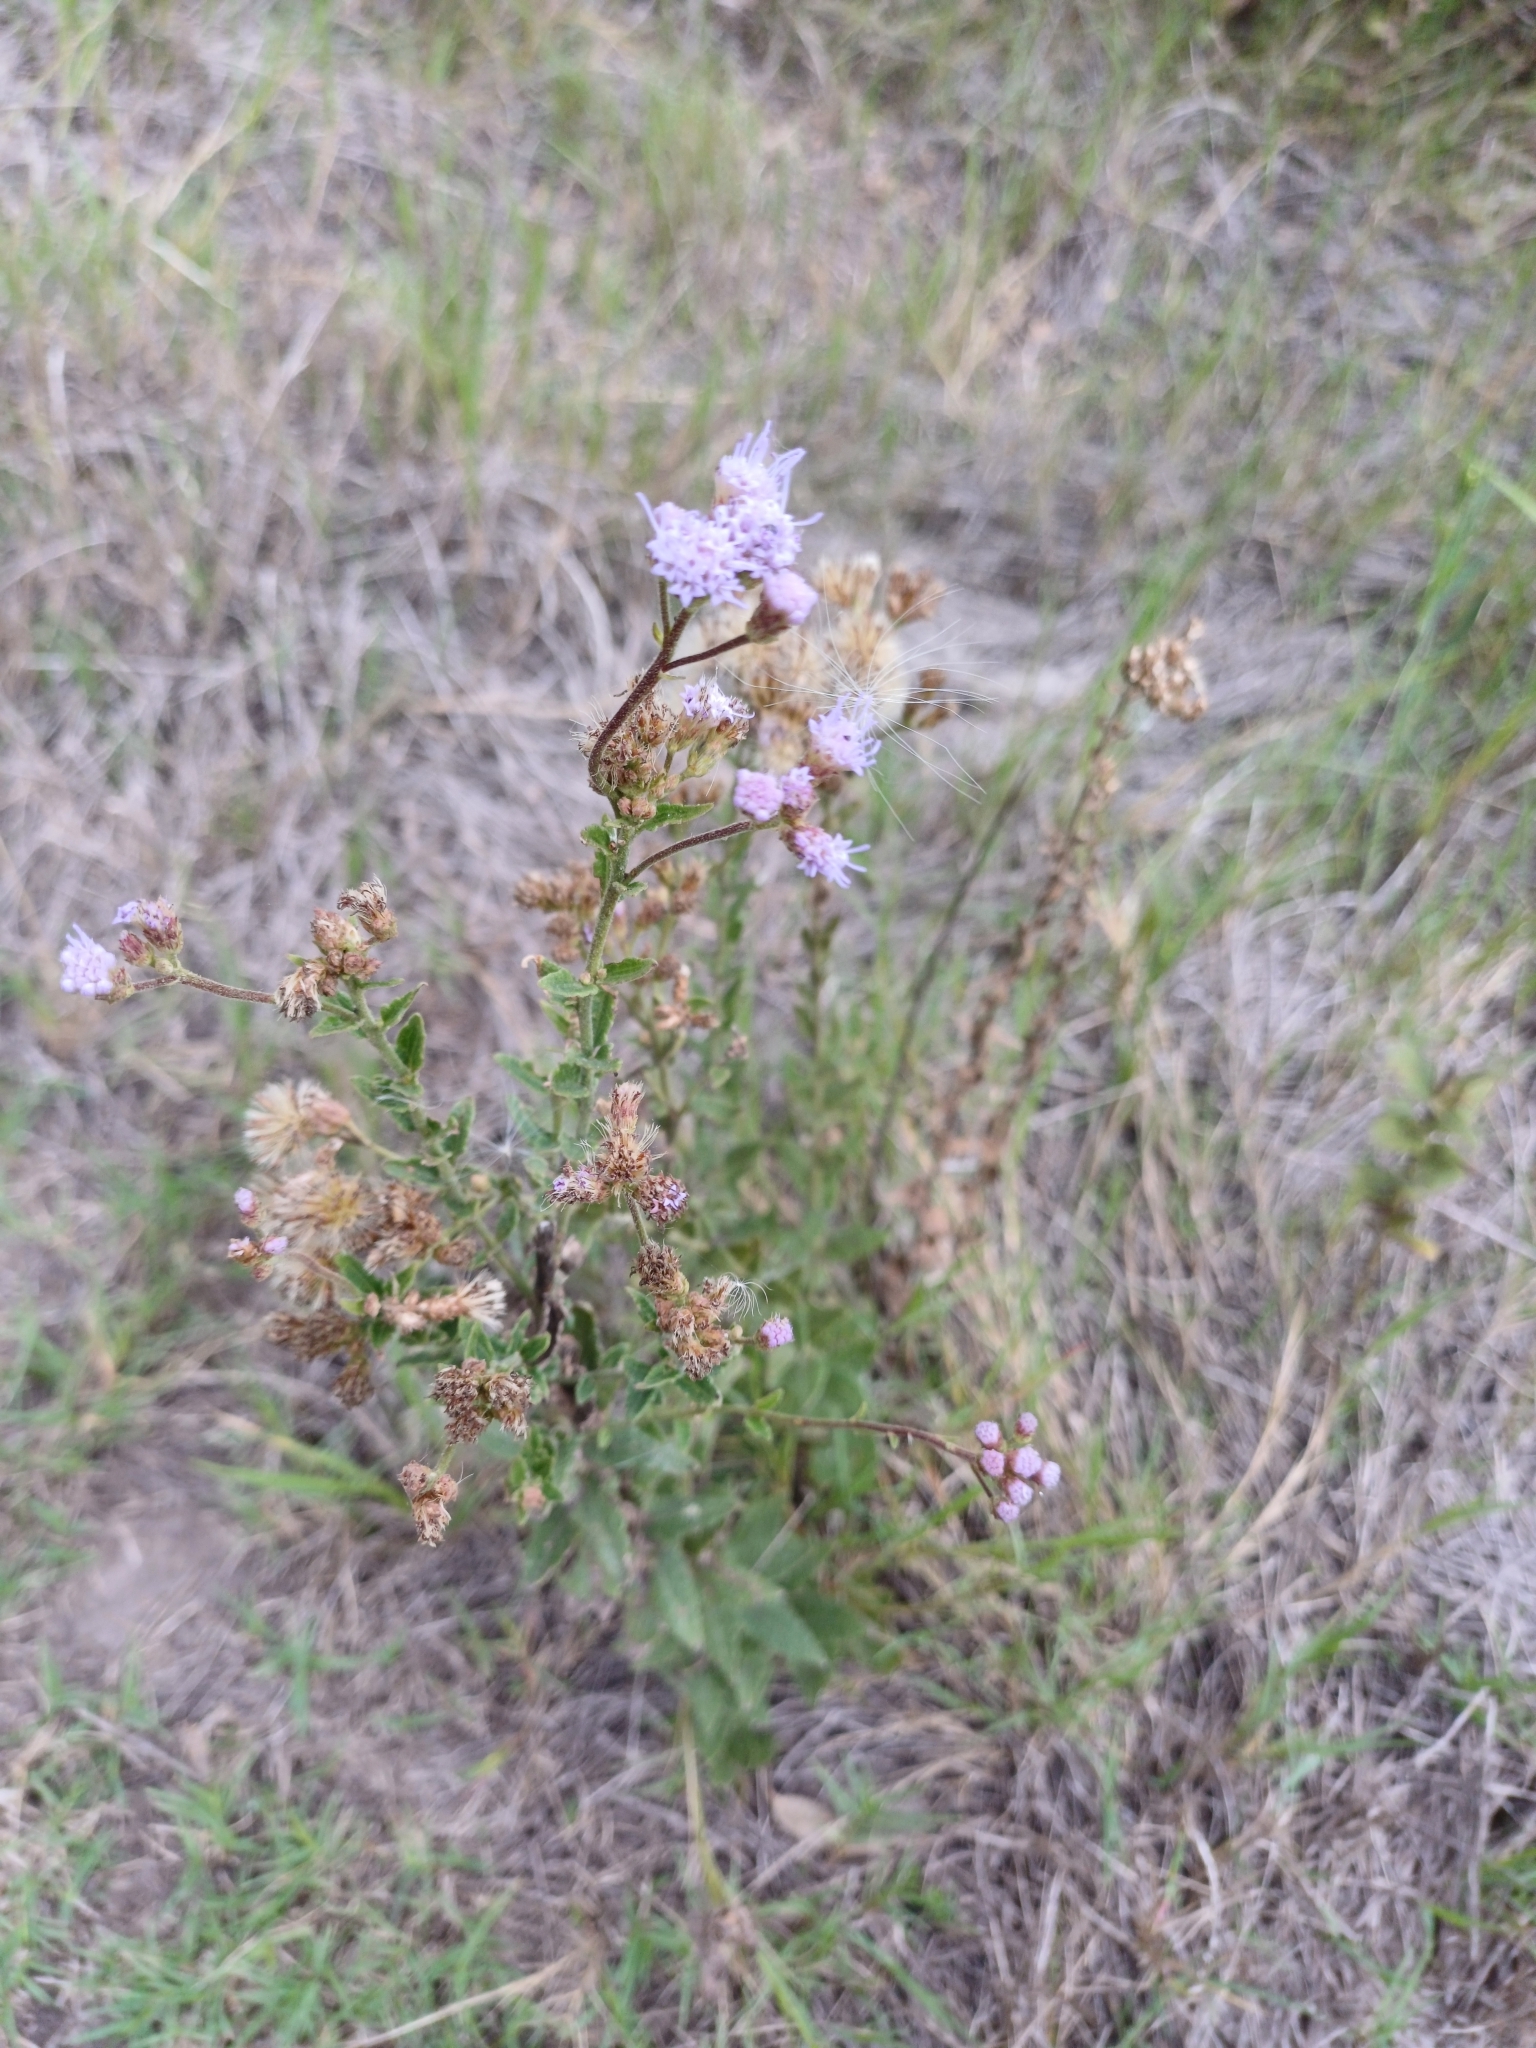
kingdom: Plantae
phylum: Tracheophyta
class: Magnoliopsida
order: Asterales
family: Asteraceae
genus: Chromolaena
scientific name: Chromolaena hirsuta
